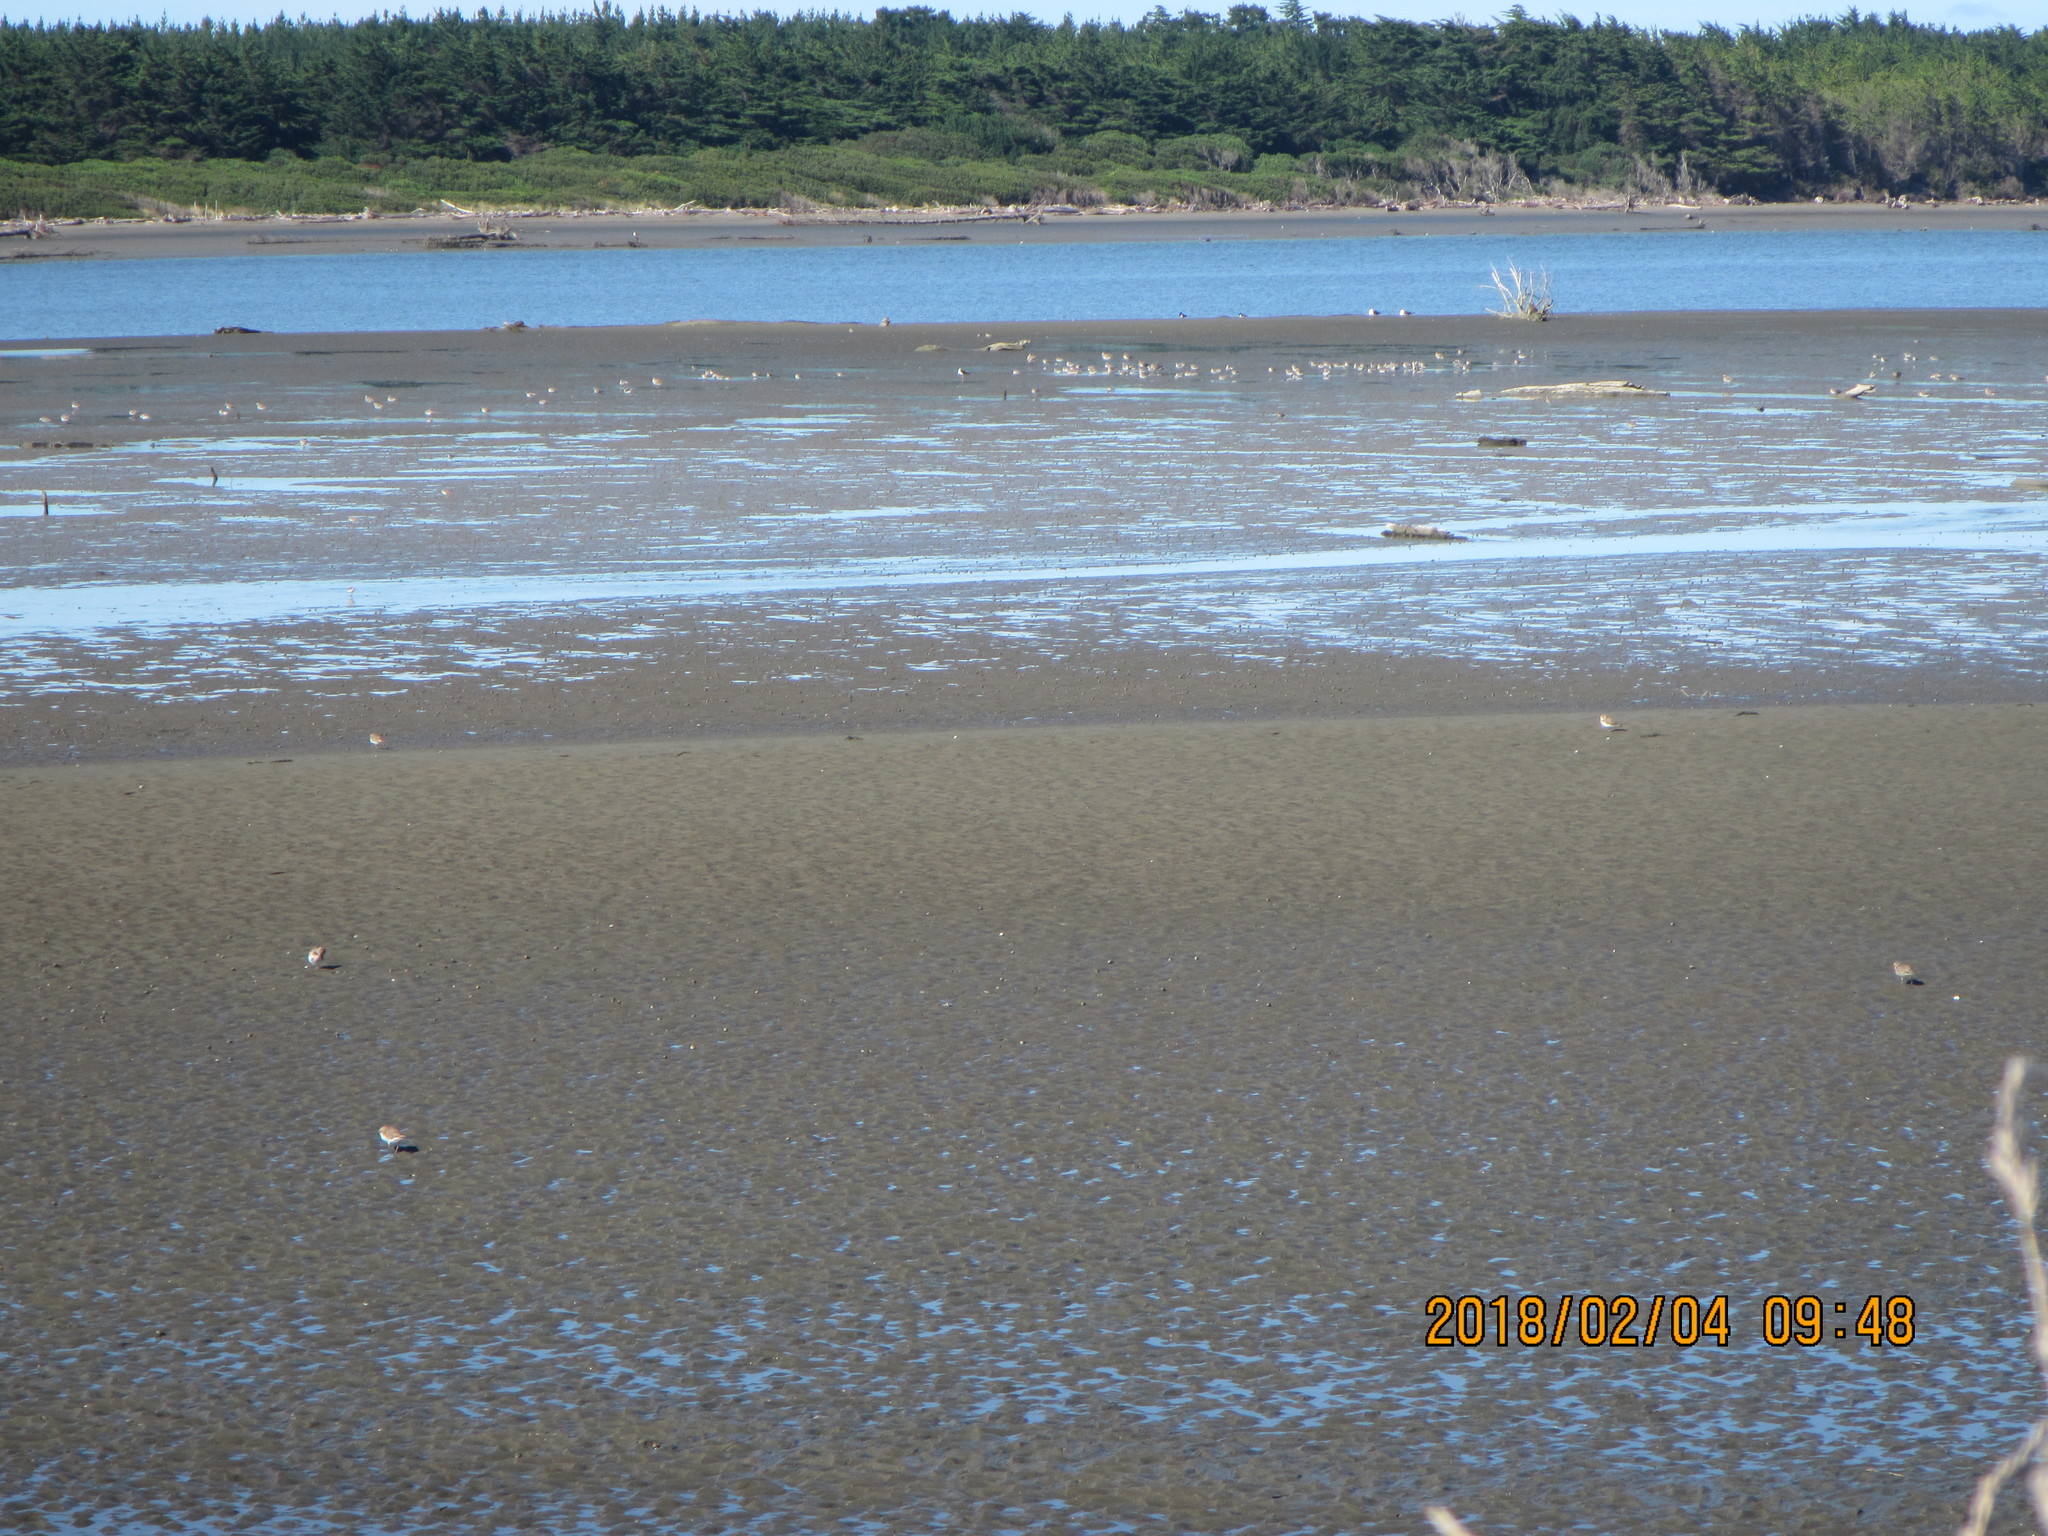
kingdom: Animalia
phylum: Chordata
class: Aves
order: Charadriiformes
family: Charadriidae
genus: Anarhynchus
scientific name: Anarhynchus frontalis
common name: Wrybill
